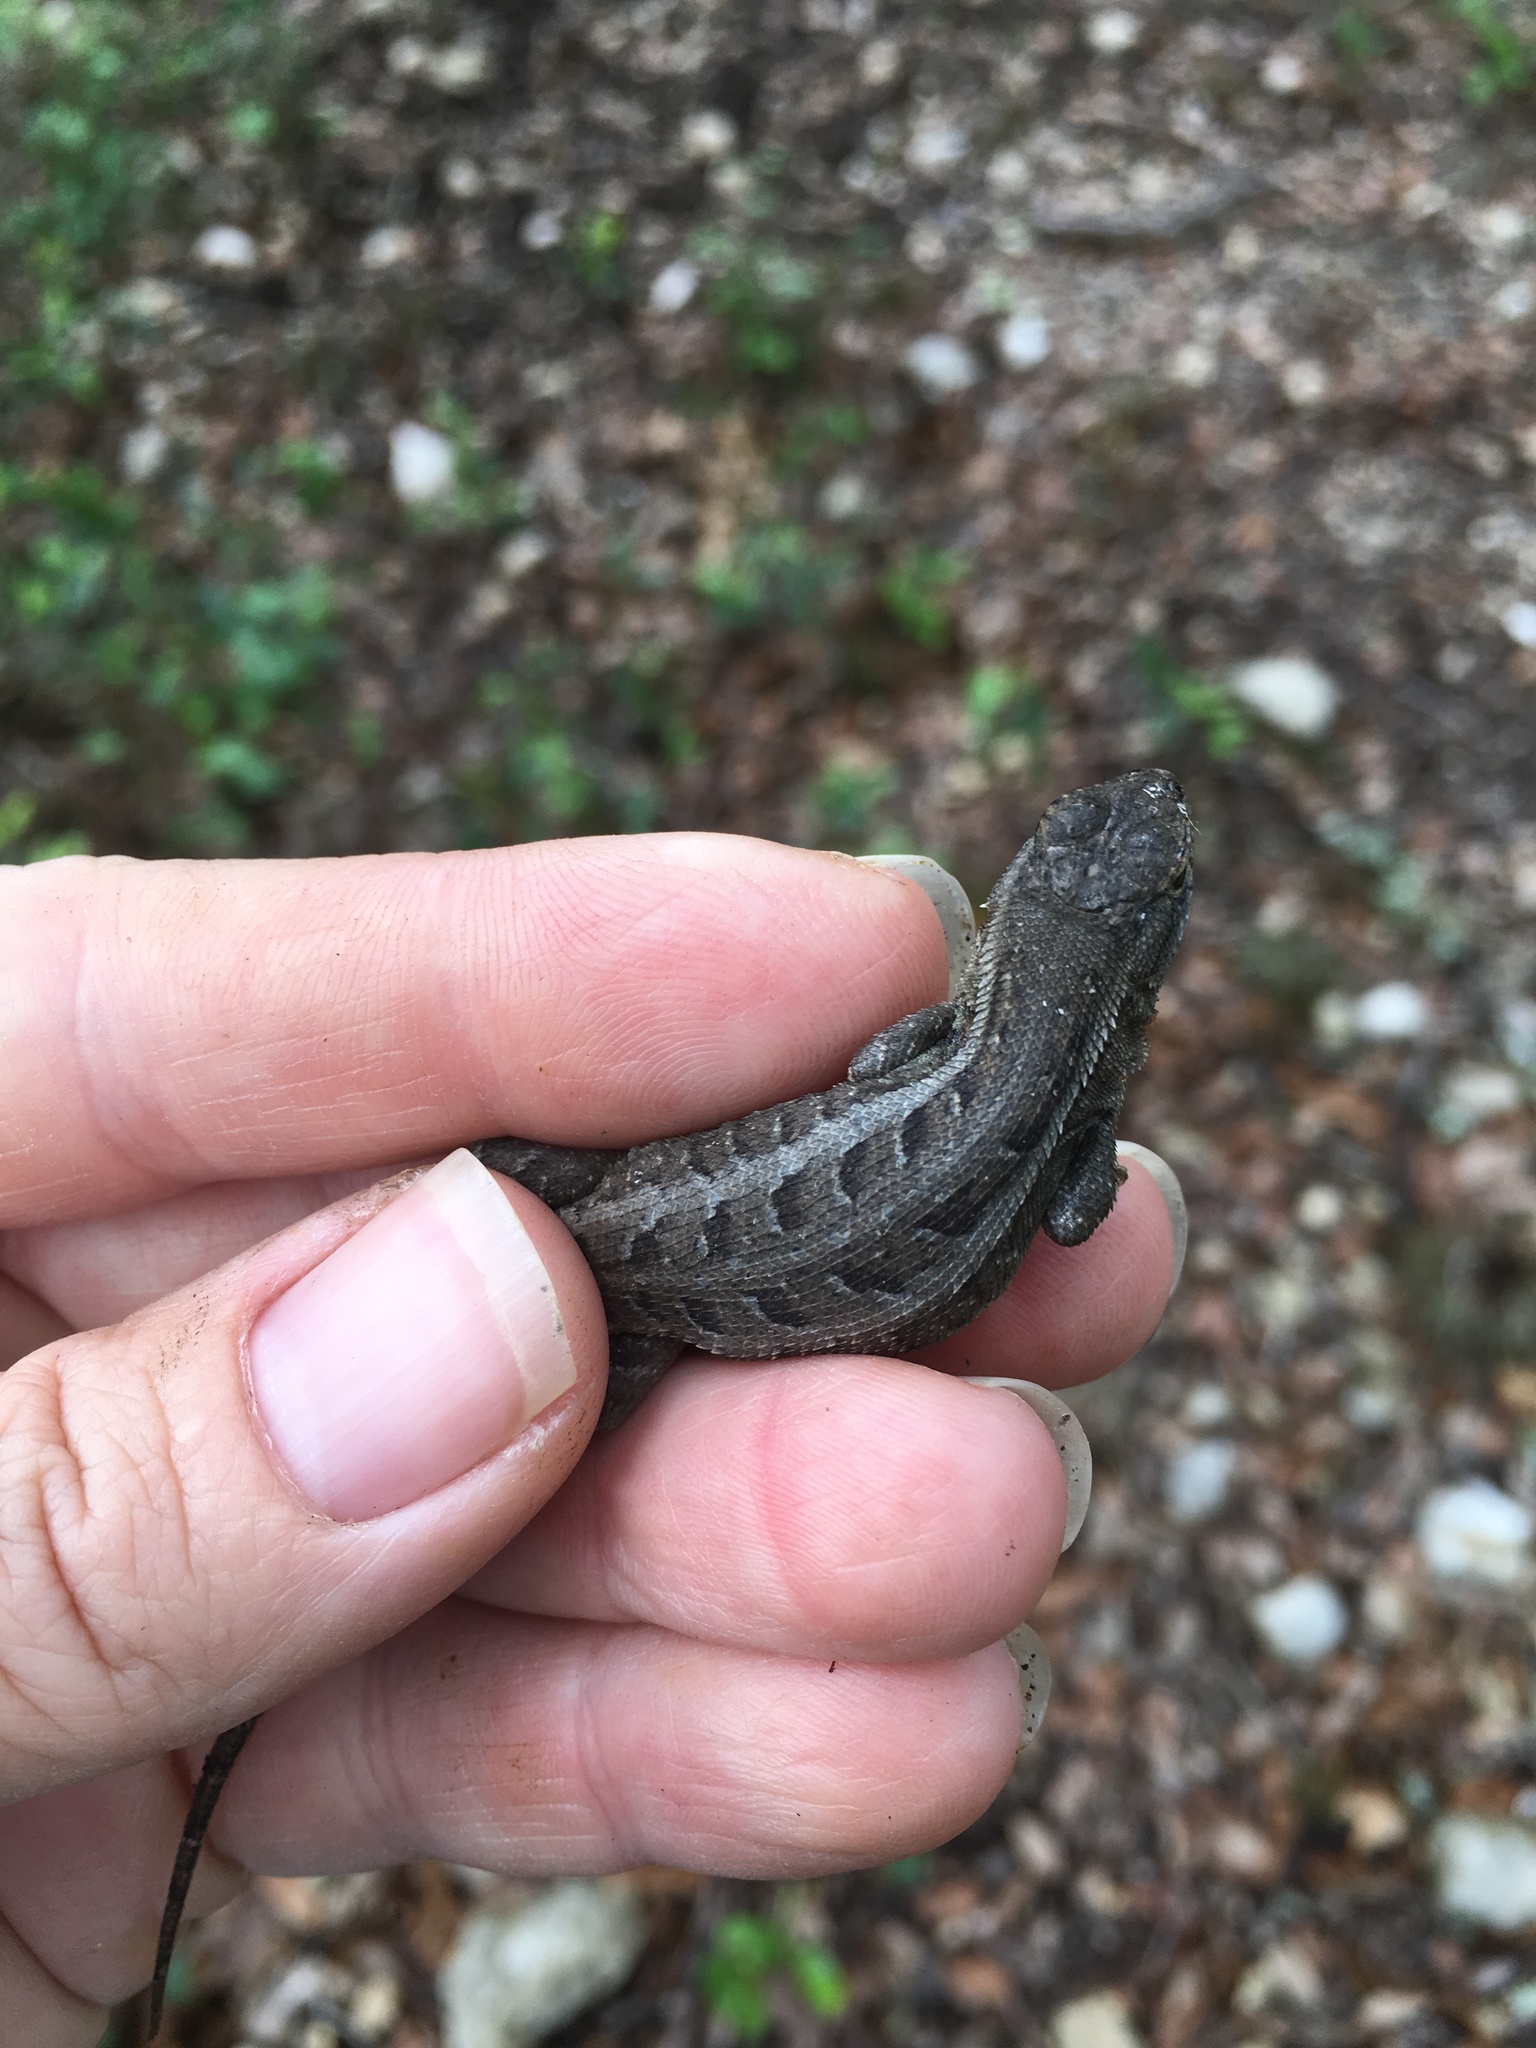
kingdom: Animalia
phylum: Chordata
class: Squamata
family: Phrynosomatidae
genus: Sceloporus
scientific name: Sceloporus variabilis
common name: Rosebelly lizard
